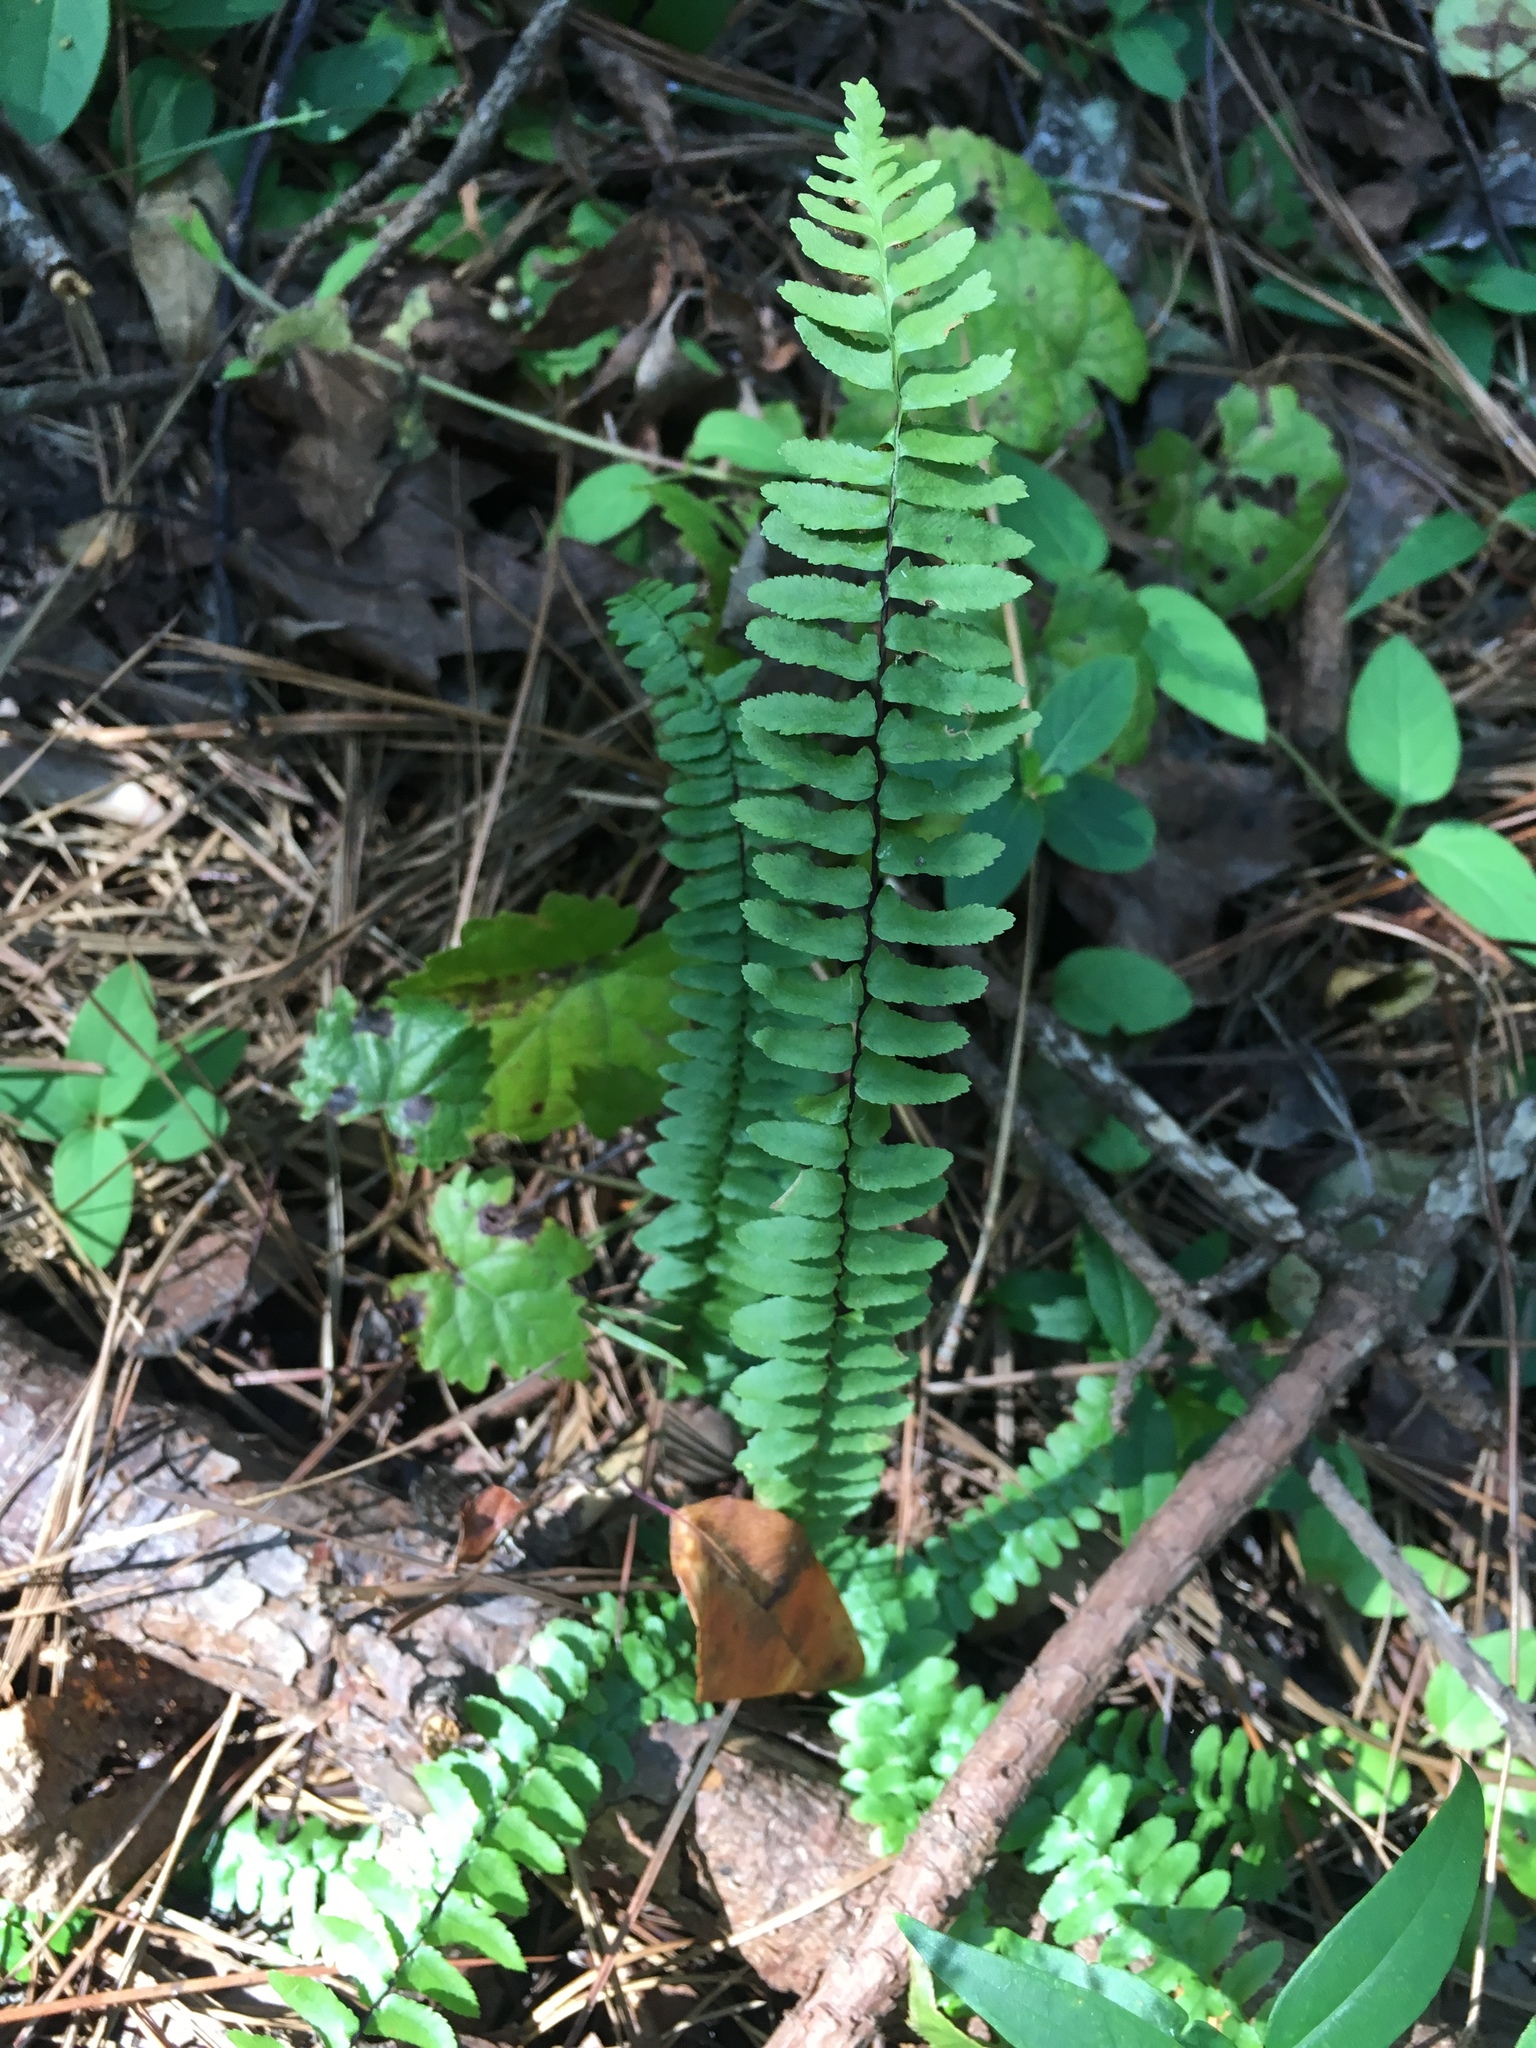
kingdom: Plantae
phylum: Tracheophyta
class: Polypodiopsida
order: Polypodiales
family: Aspleniaceae
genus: Asplenium
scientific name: Asplenium platyneuron
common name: Ebony spleenwort
